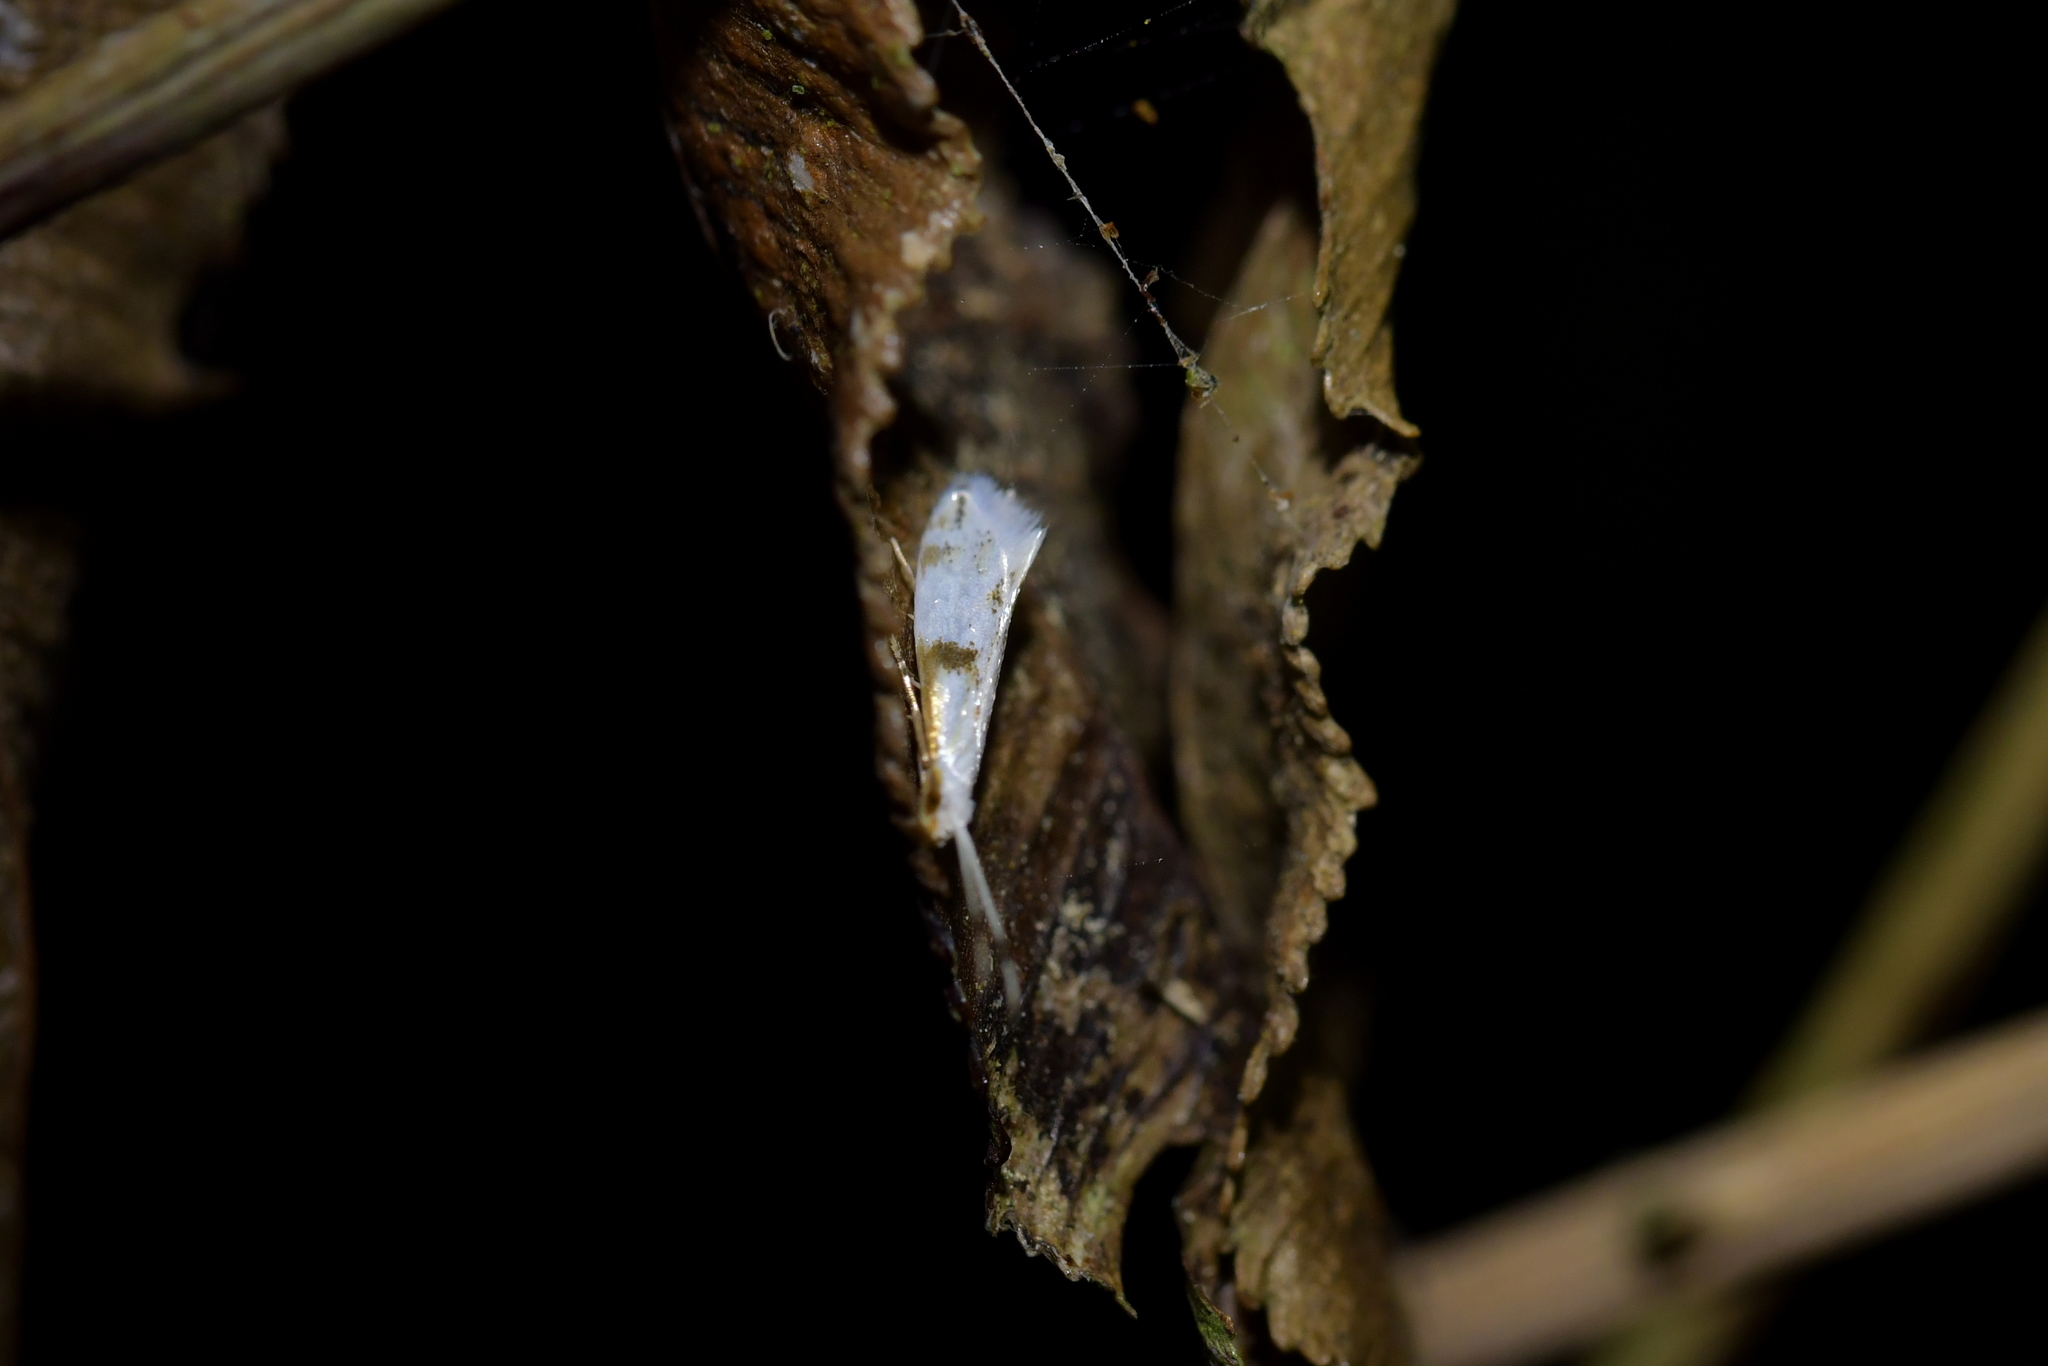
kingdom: Animalia
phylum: Arthropoda
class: Insecta
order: Lepidoptera
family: Tineidae
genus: Sagephora
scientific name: Sagephora felix
